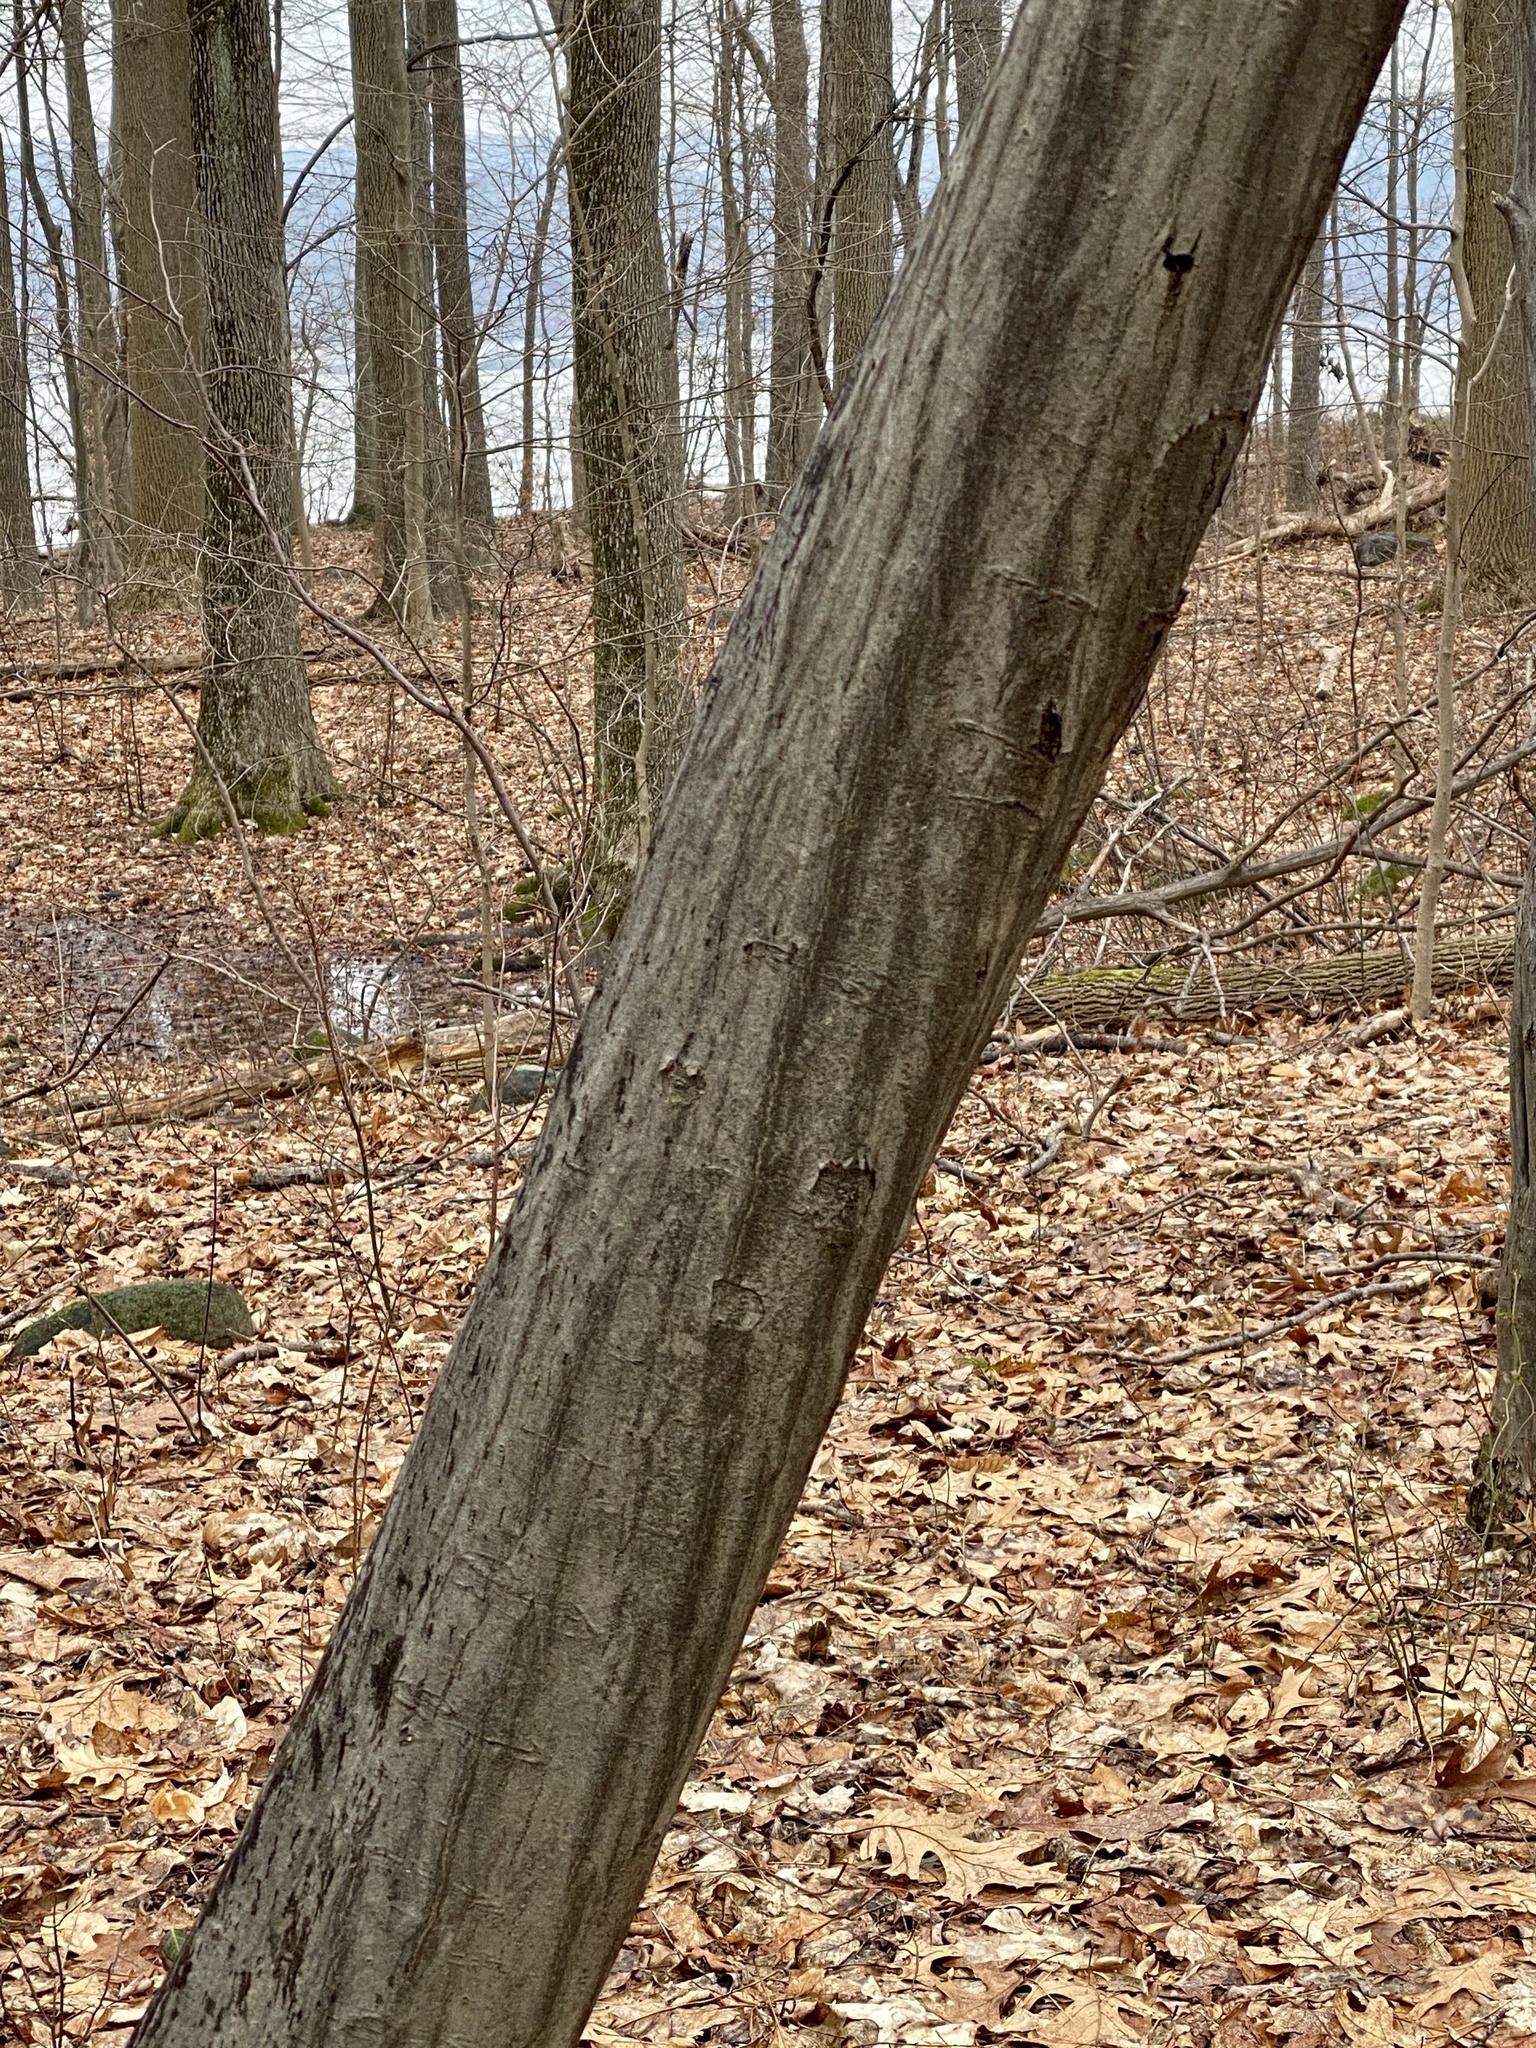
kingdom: Plantae
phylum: Tracheophyta
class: Magnoliopsida
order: Fagales
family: Betulaceae
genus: Carpinus
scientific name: Carpinus caroliniana
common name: American hornbeam
